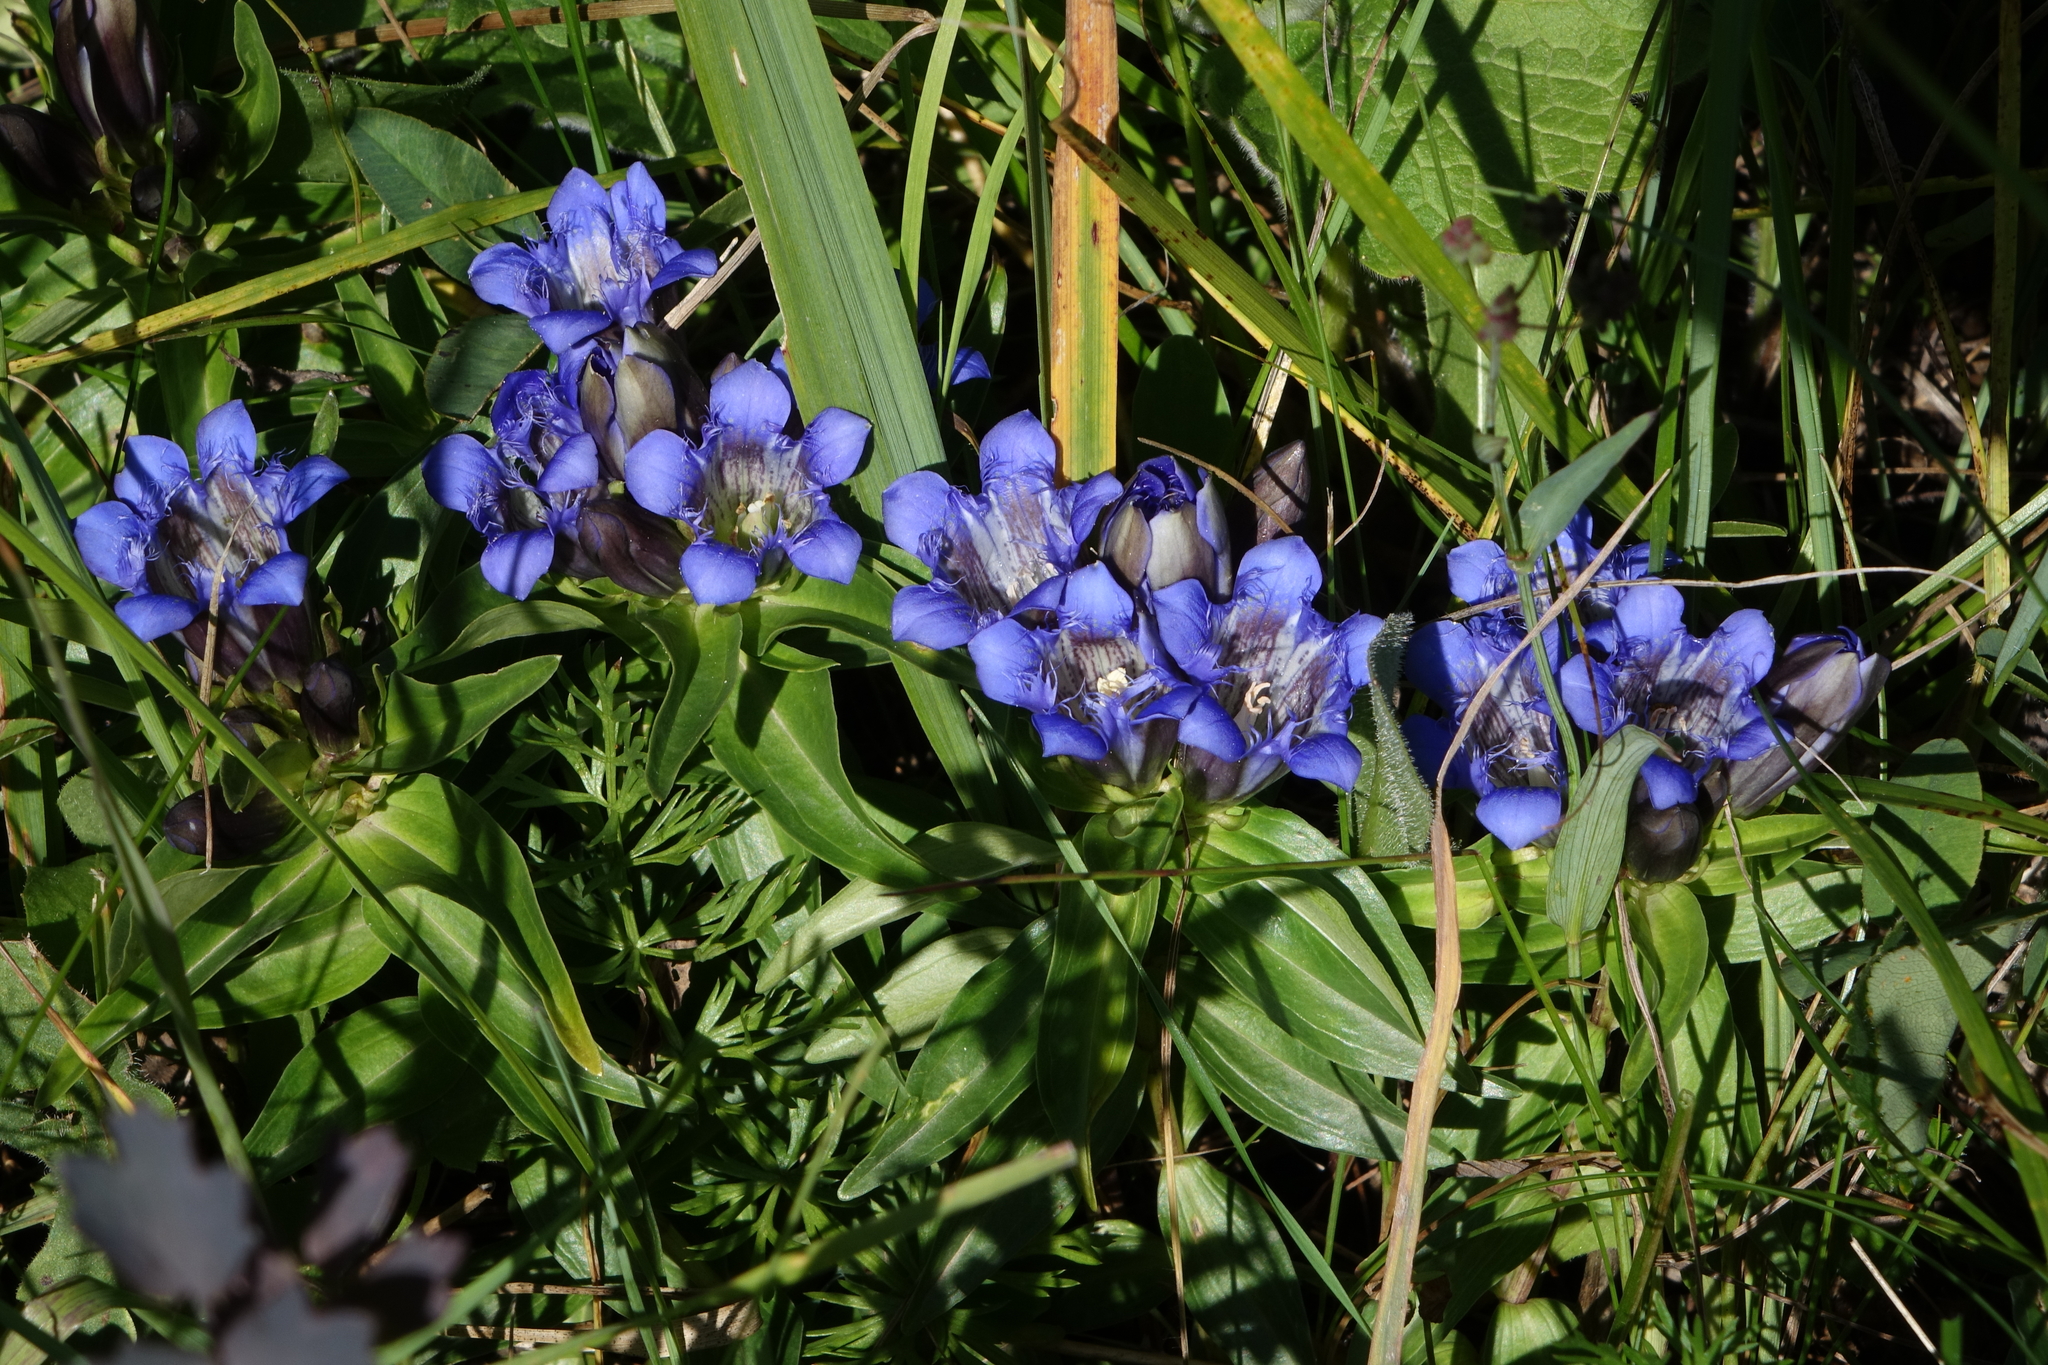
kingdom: Plantae
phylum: Tracheophyta
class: Magnoliopsida
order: Gentianales
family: Gentianaceae
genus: Gentiana
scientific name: Gentiana septemfida
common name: Crested gentian
